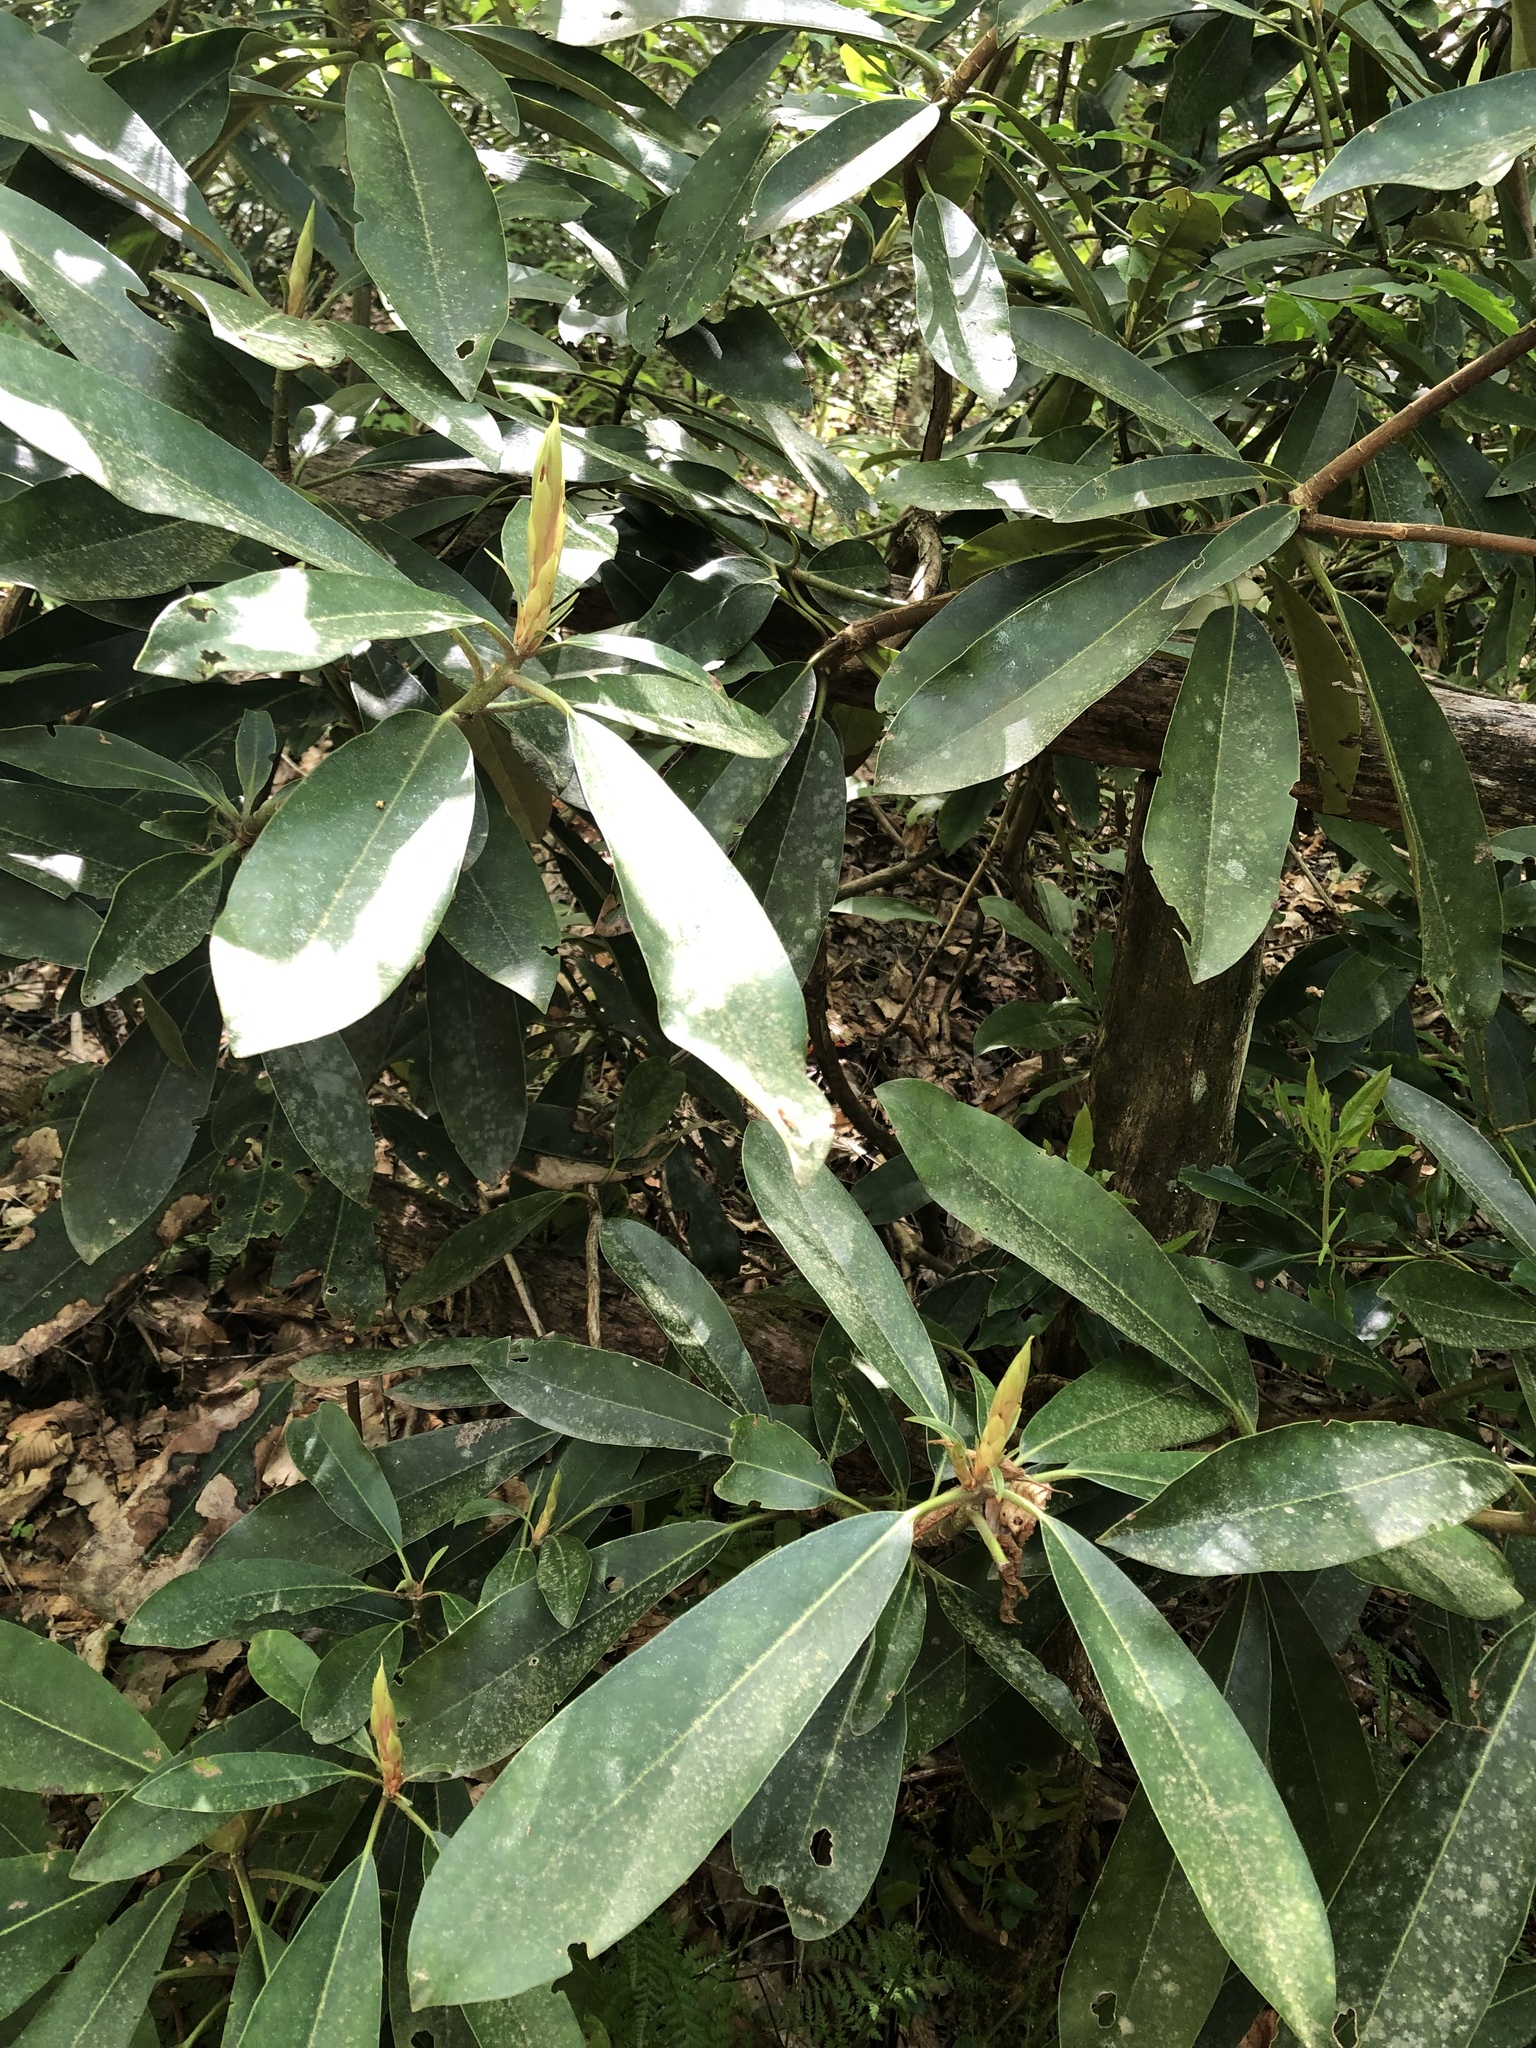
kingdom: Plantae
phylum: Tracheophyta
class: Magnoliopsida
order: Ericales
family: Ericaceae
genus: Rhododendron
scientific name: Rhododendron maximum
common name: Great rhododendron
